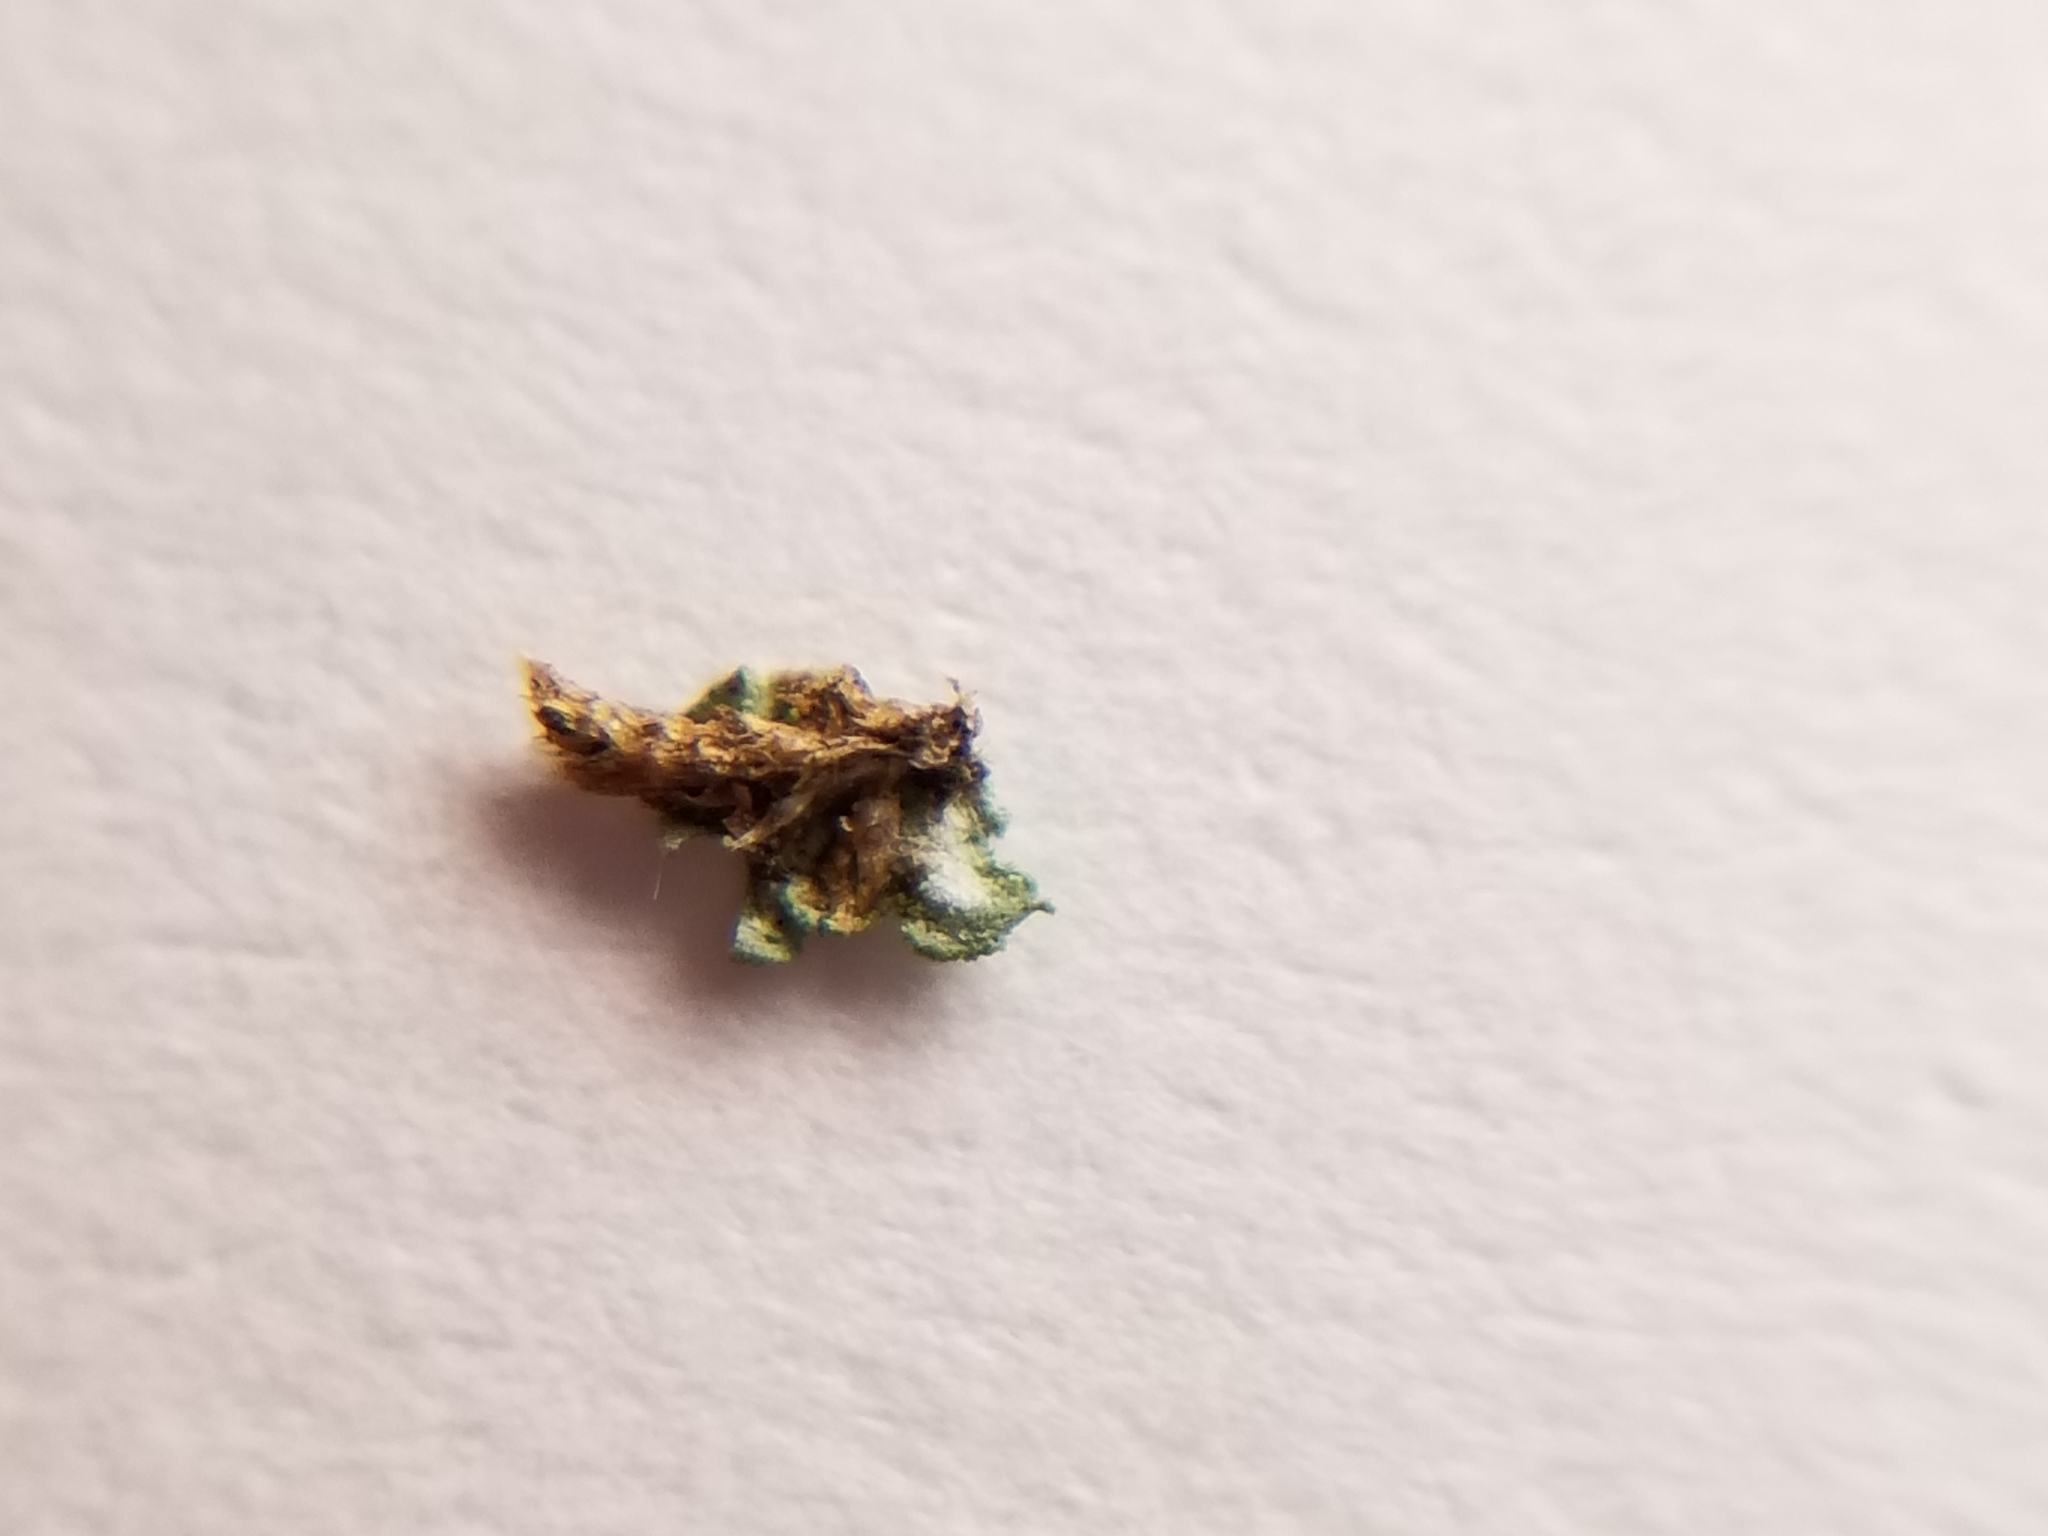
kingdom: Fungi
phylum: Ascomycota
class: Eurotiomycetes
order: Verrucariales
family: Verrucariaceae
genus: Normandina
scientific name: Normandina pulchella
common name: Elf ears lichen
